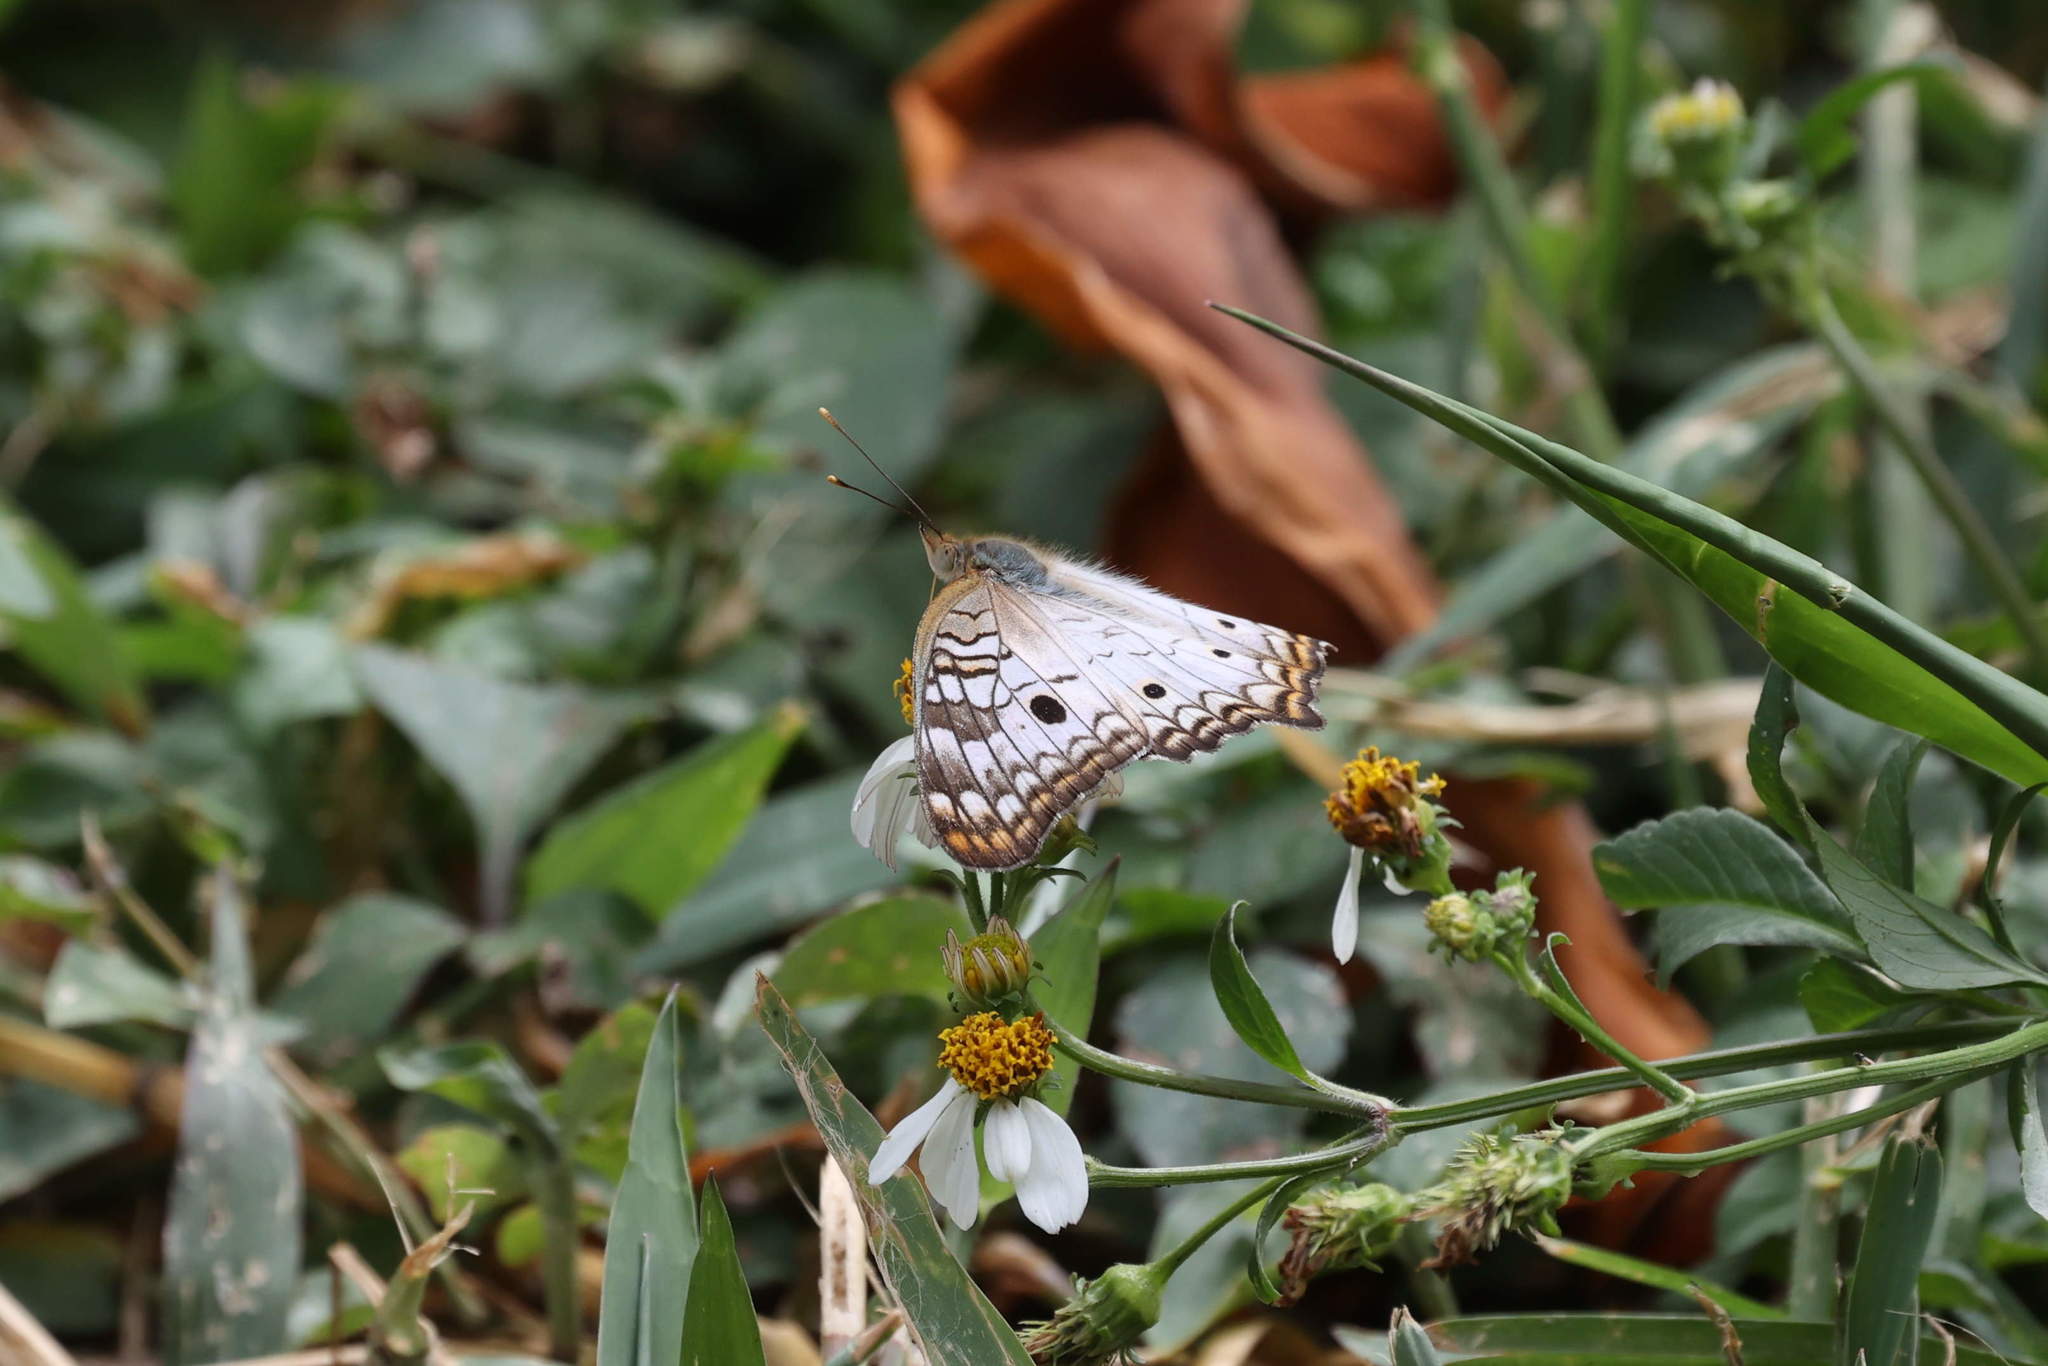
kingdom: Animalia
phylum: Arthropoda
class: Insecta
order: Lepidoptera
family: Nymphalidae
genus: Anartia
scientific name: Anartia jatrophae
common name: White peacock
